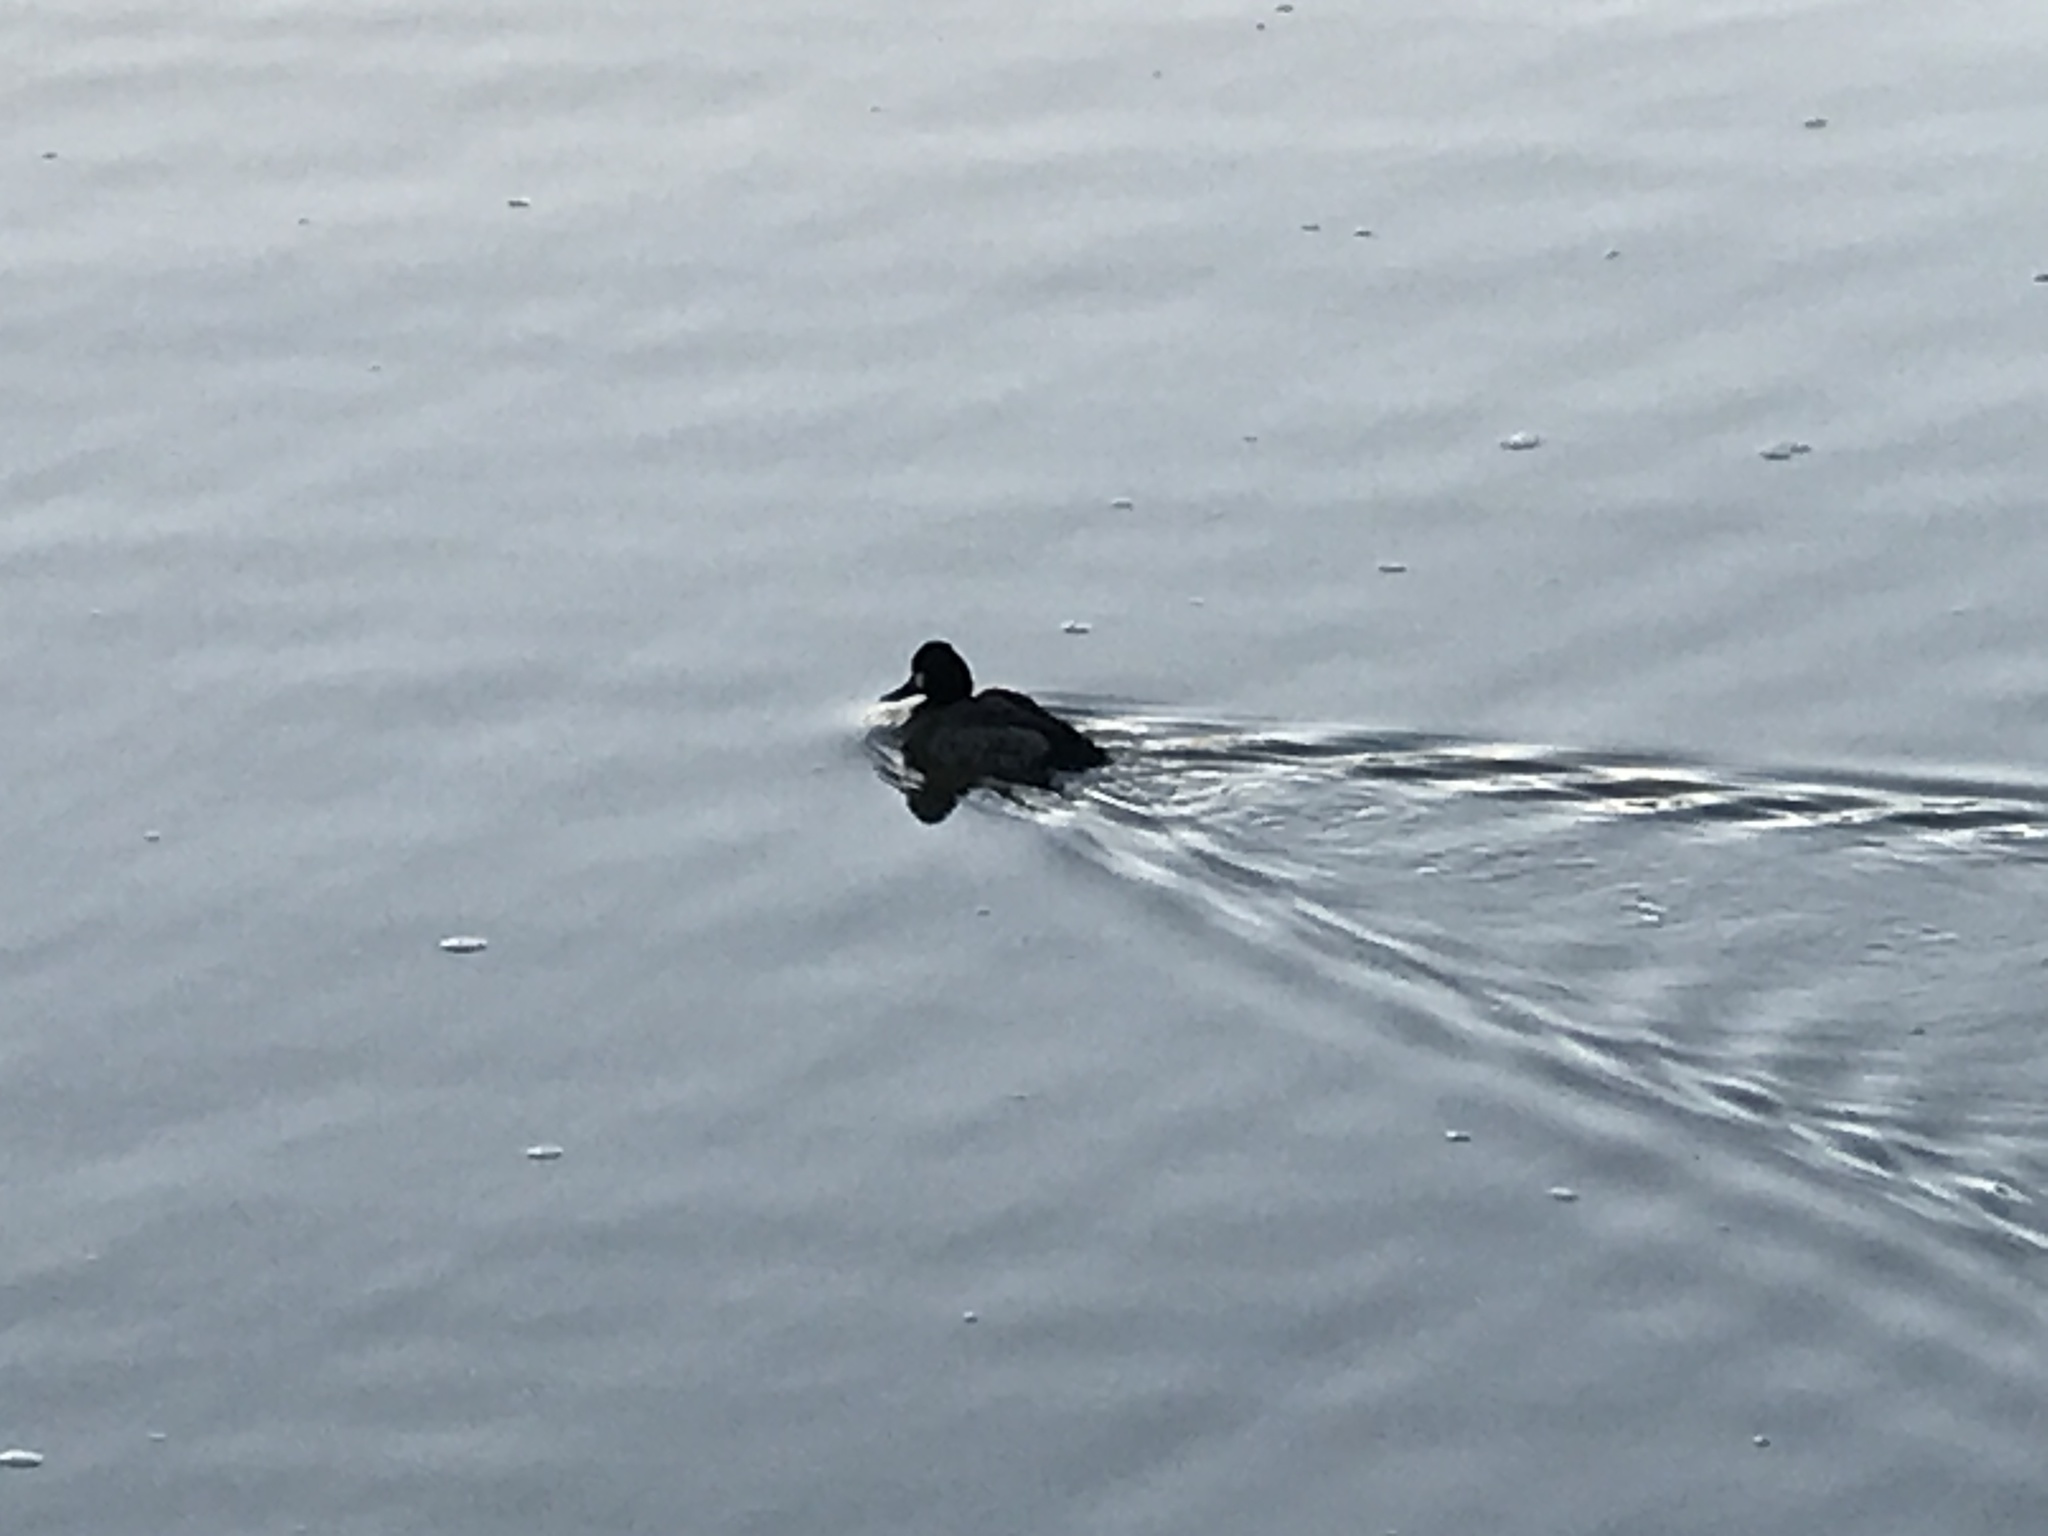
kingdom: Animalia
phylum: Chordata
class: Aves
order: Anseriformes
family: Anatidae
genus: Aythya
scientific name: Aythya affinis
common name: Lesser scaup
